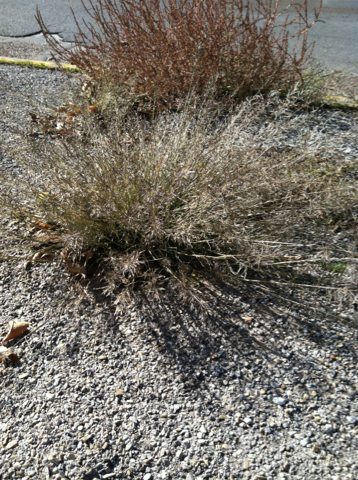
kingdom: Plantae
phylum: Tracheophyta
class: Liliopsida
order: Poales
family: Poaceae
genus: Eragrostis
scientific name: Eragrostis cilianensis
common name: Stinkgrass
